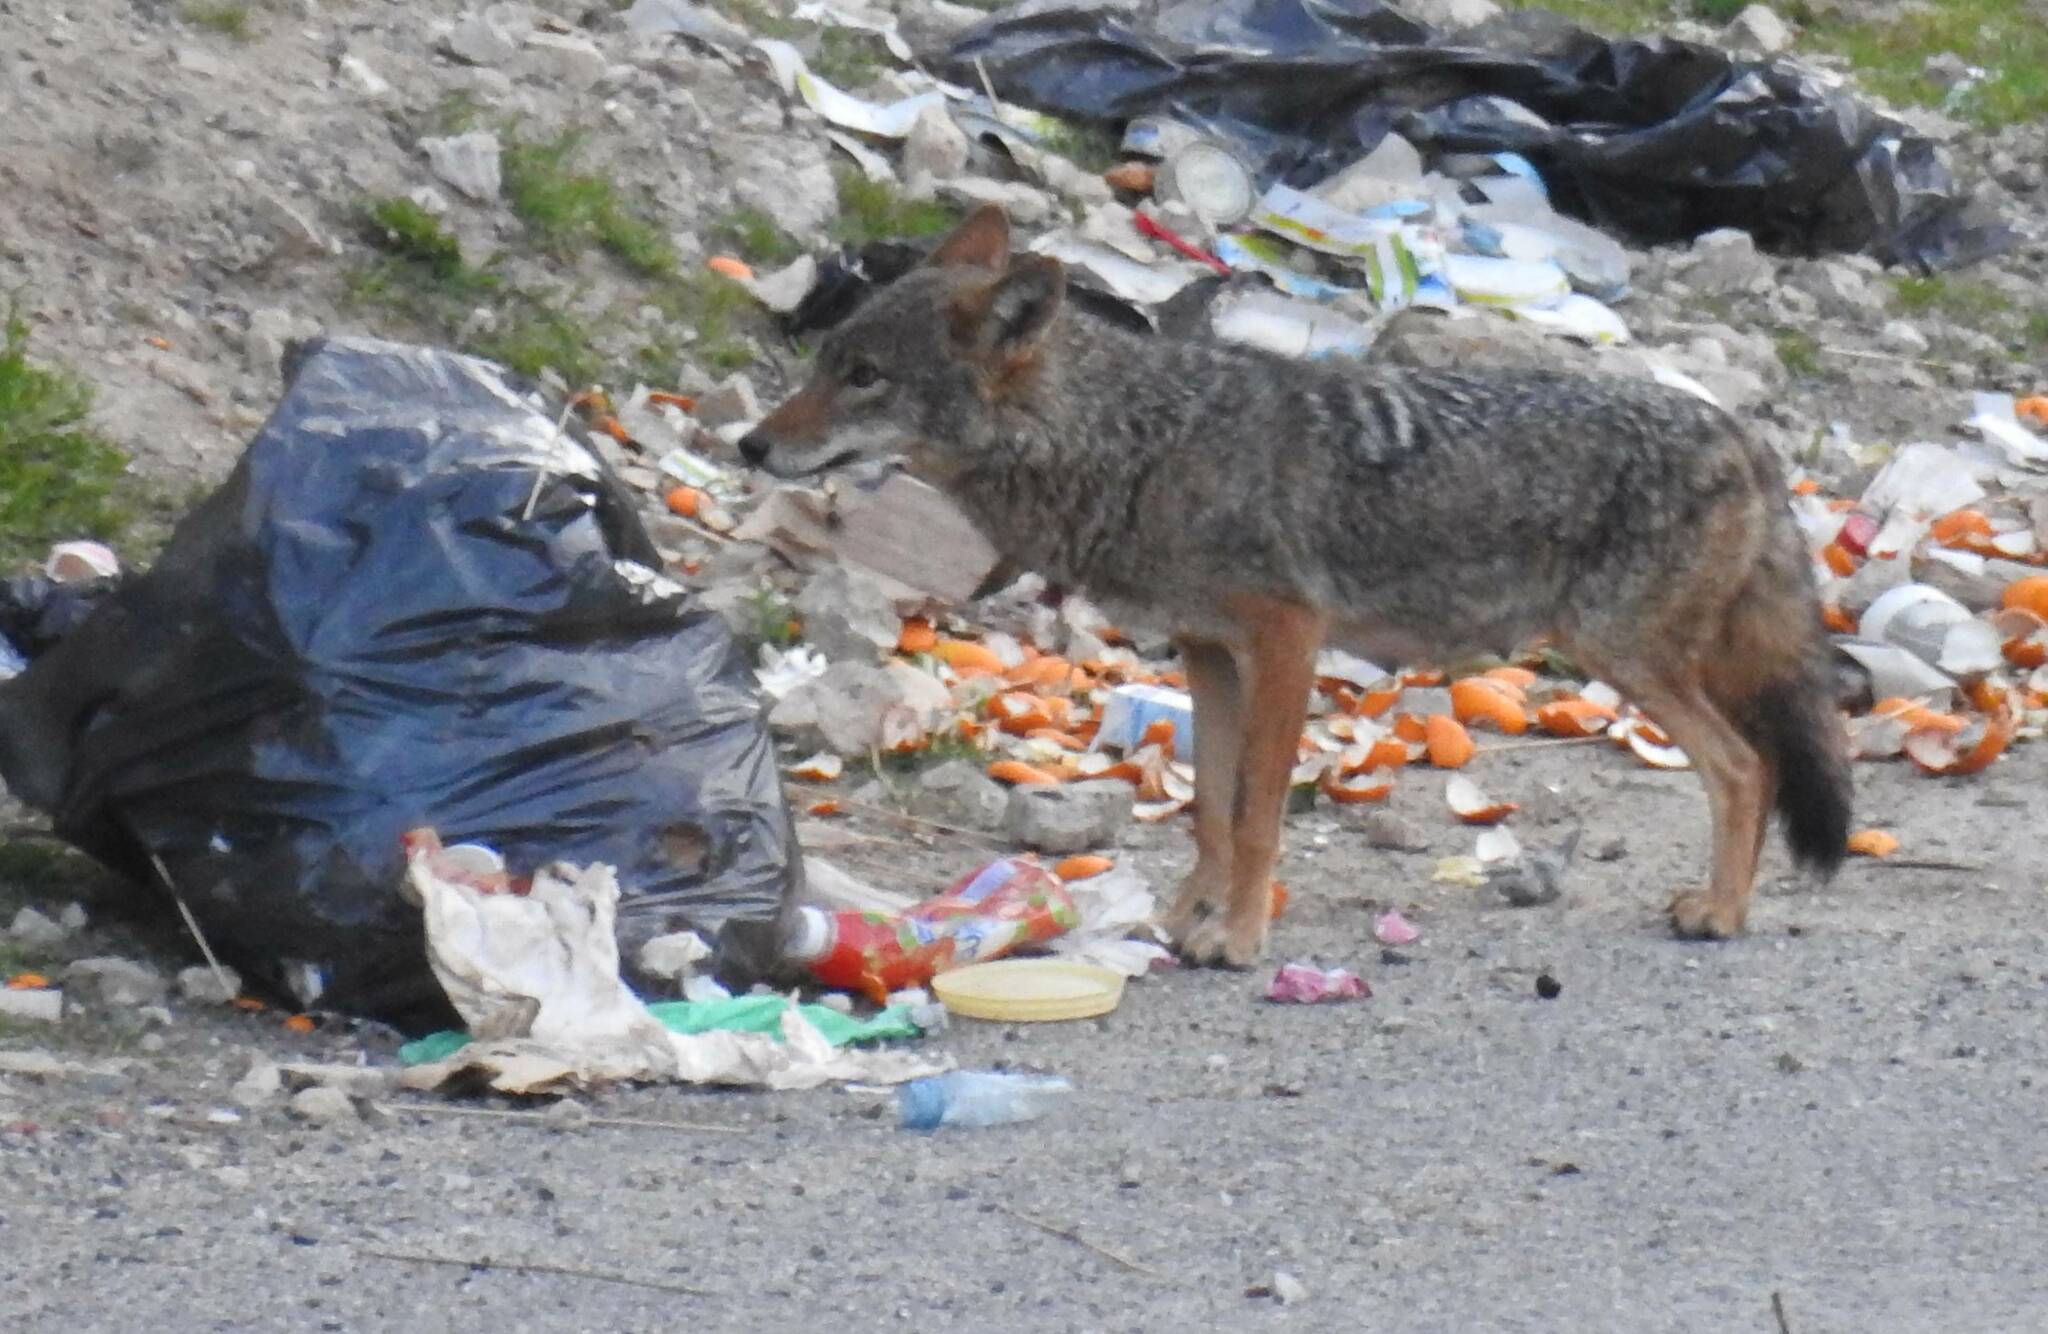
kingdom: Animalia
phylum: Chordata
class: Mammalia
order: Carnivora
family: Canidae
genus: Canis
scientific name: Canis lupaster
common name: African golden wolf
